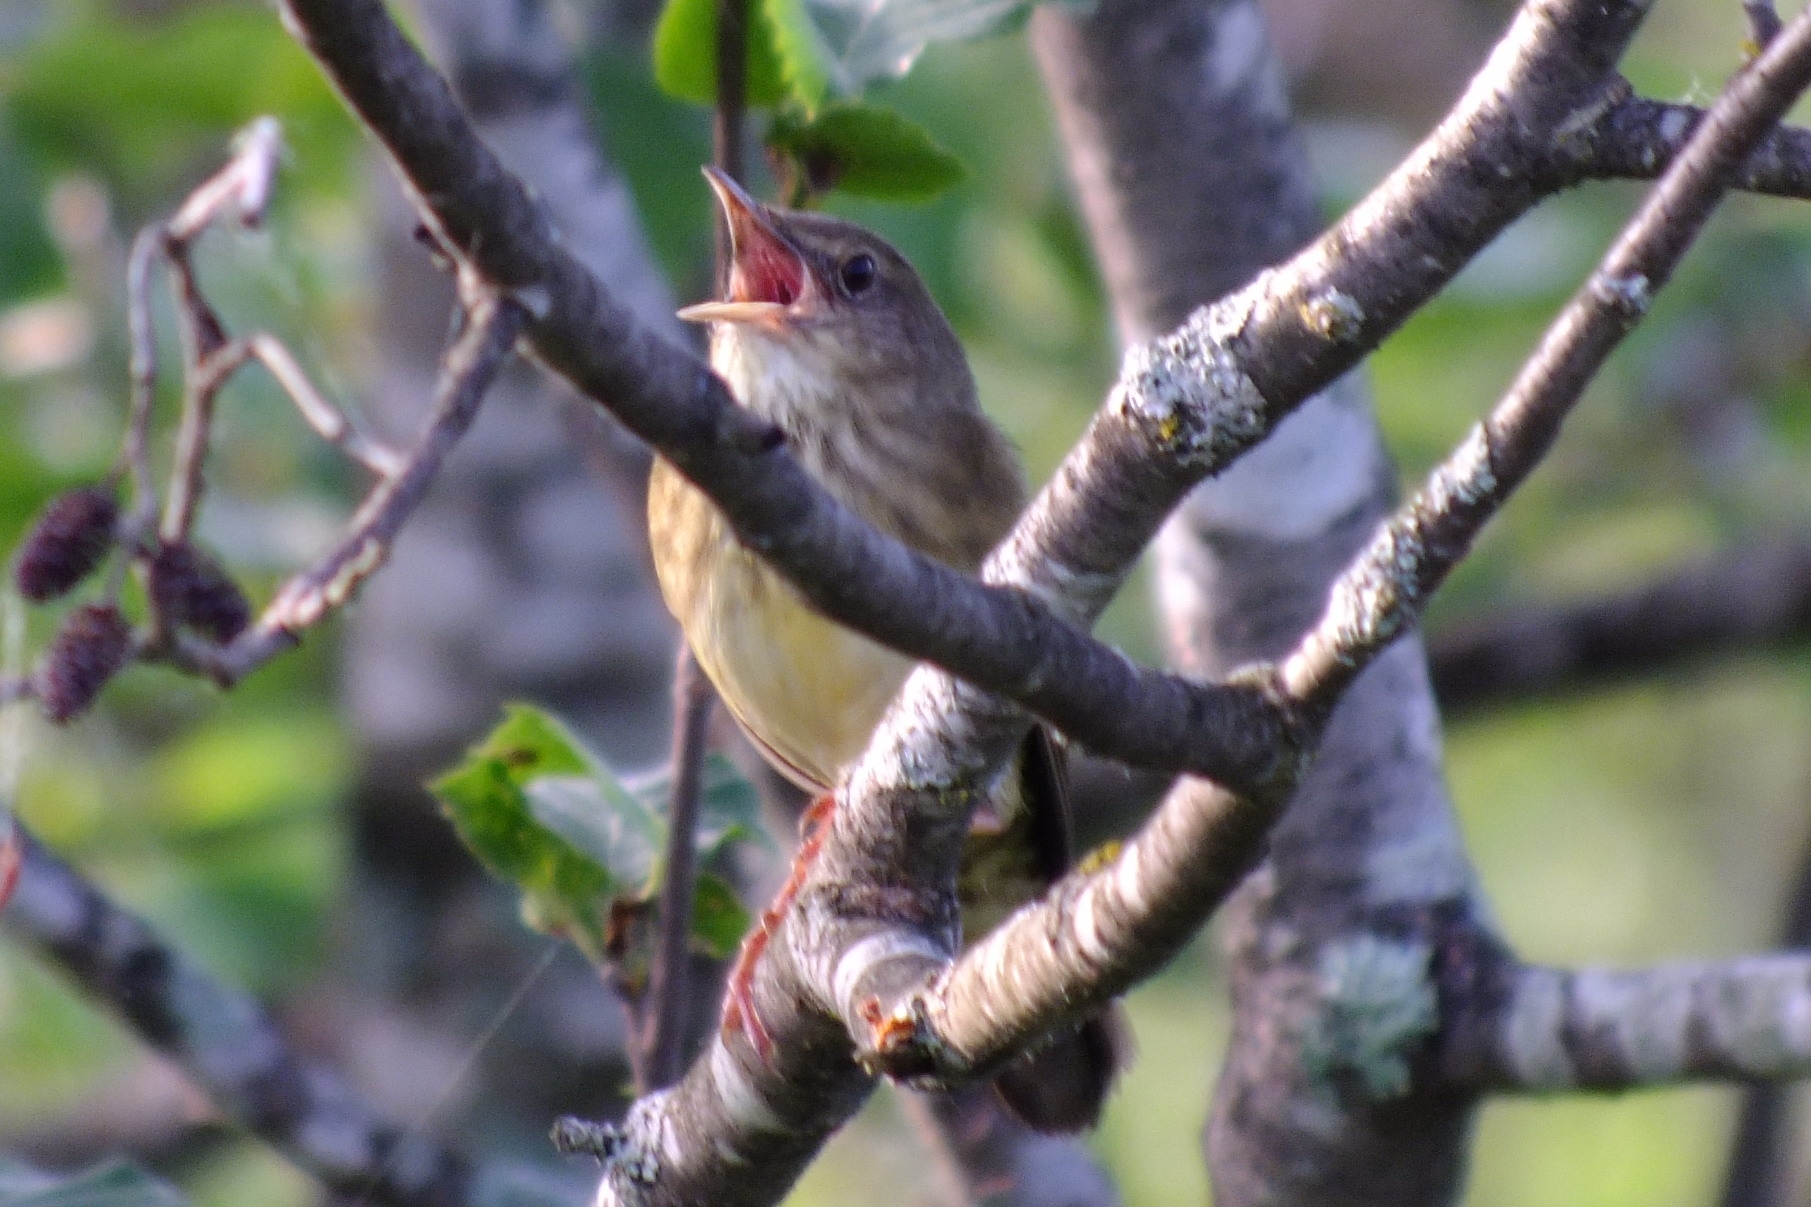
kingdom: Animalia
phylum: Chordata
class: Aves
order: Passeriformes
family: Locustellidae
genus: Locustella
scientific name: Locustella fluviatilis
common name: River warbler
